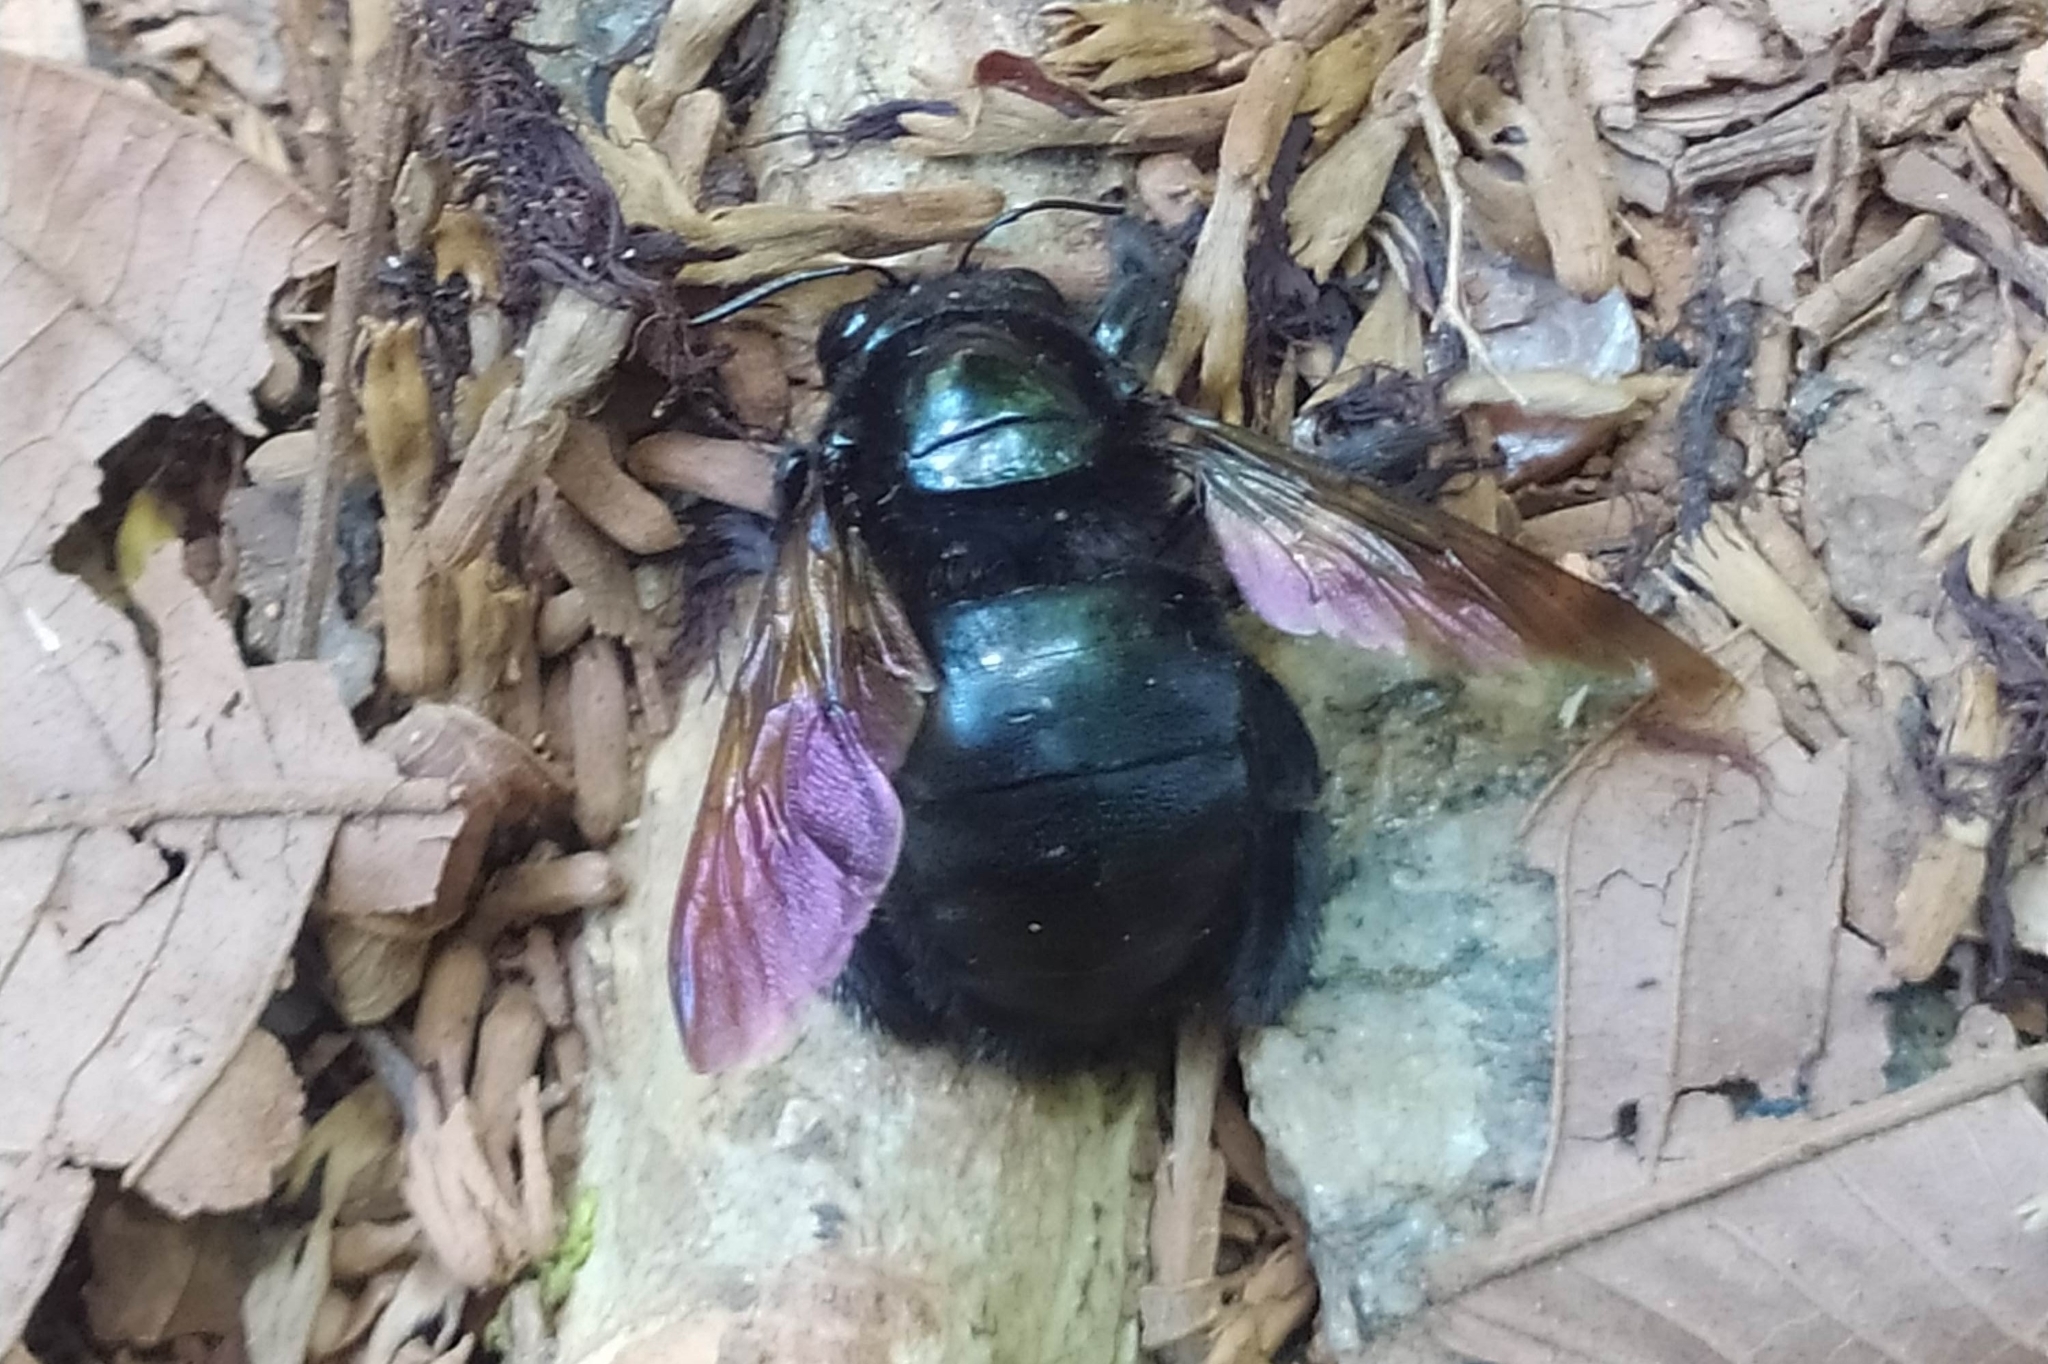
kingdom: Animalia
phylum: Arthropoda
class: Insecta
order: Hymenoptera
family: Apidae
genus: Xylocopa
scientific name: Xylocopa
